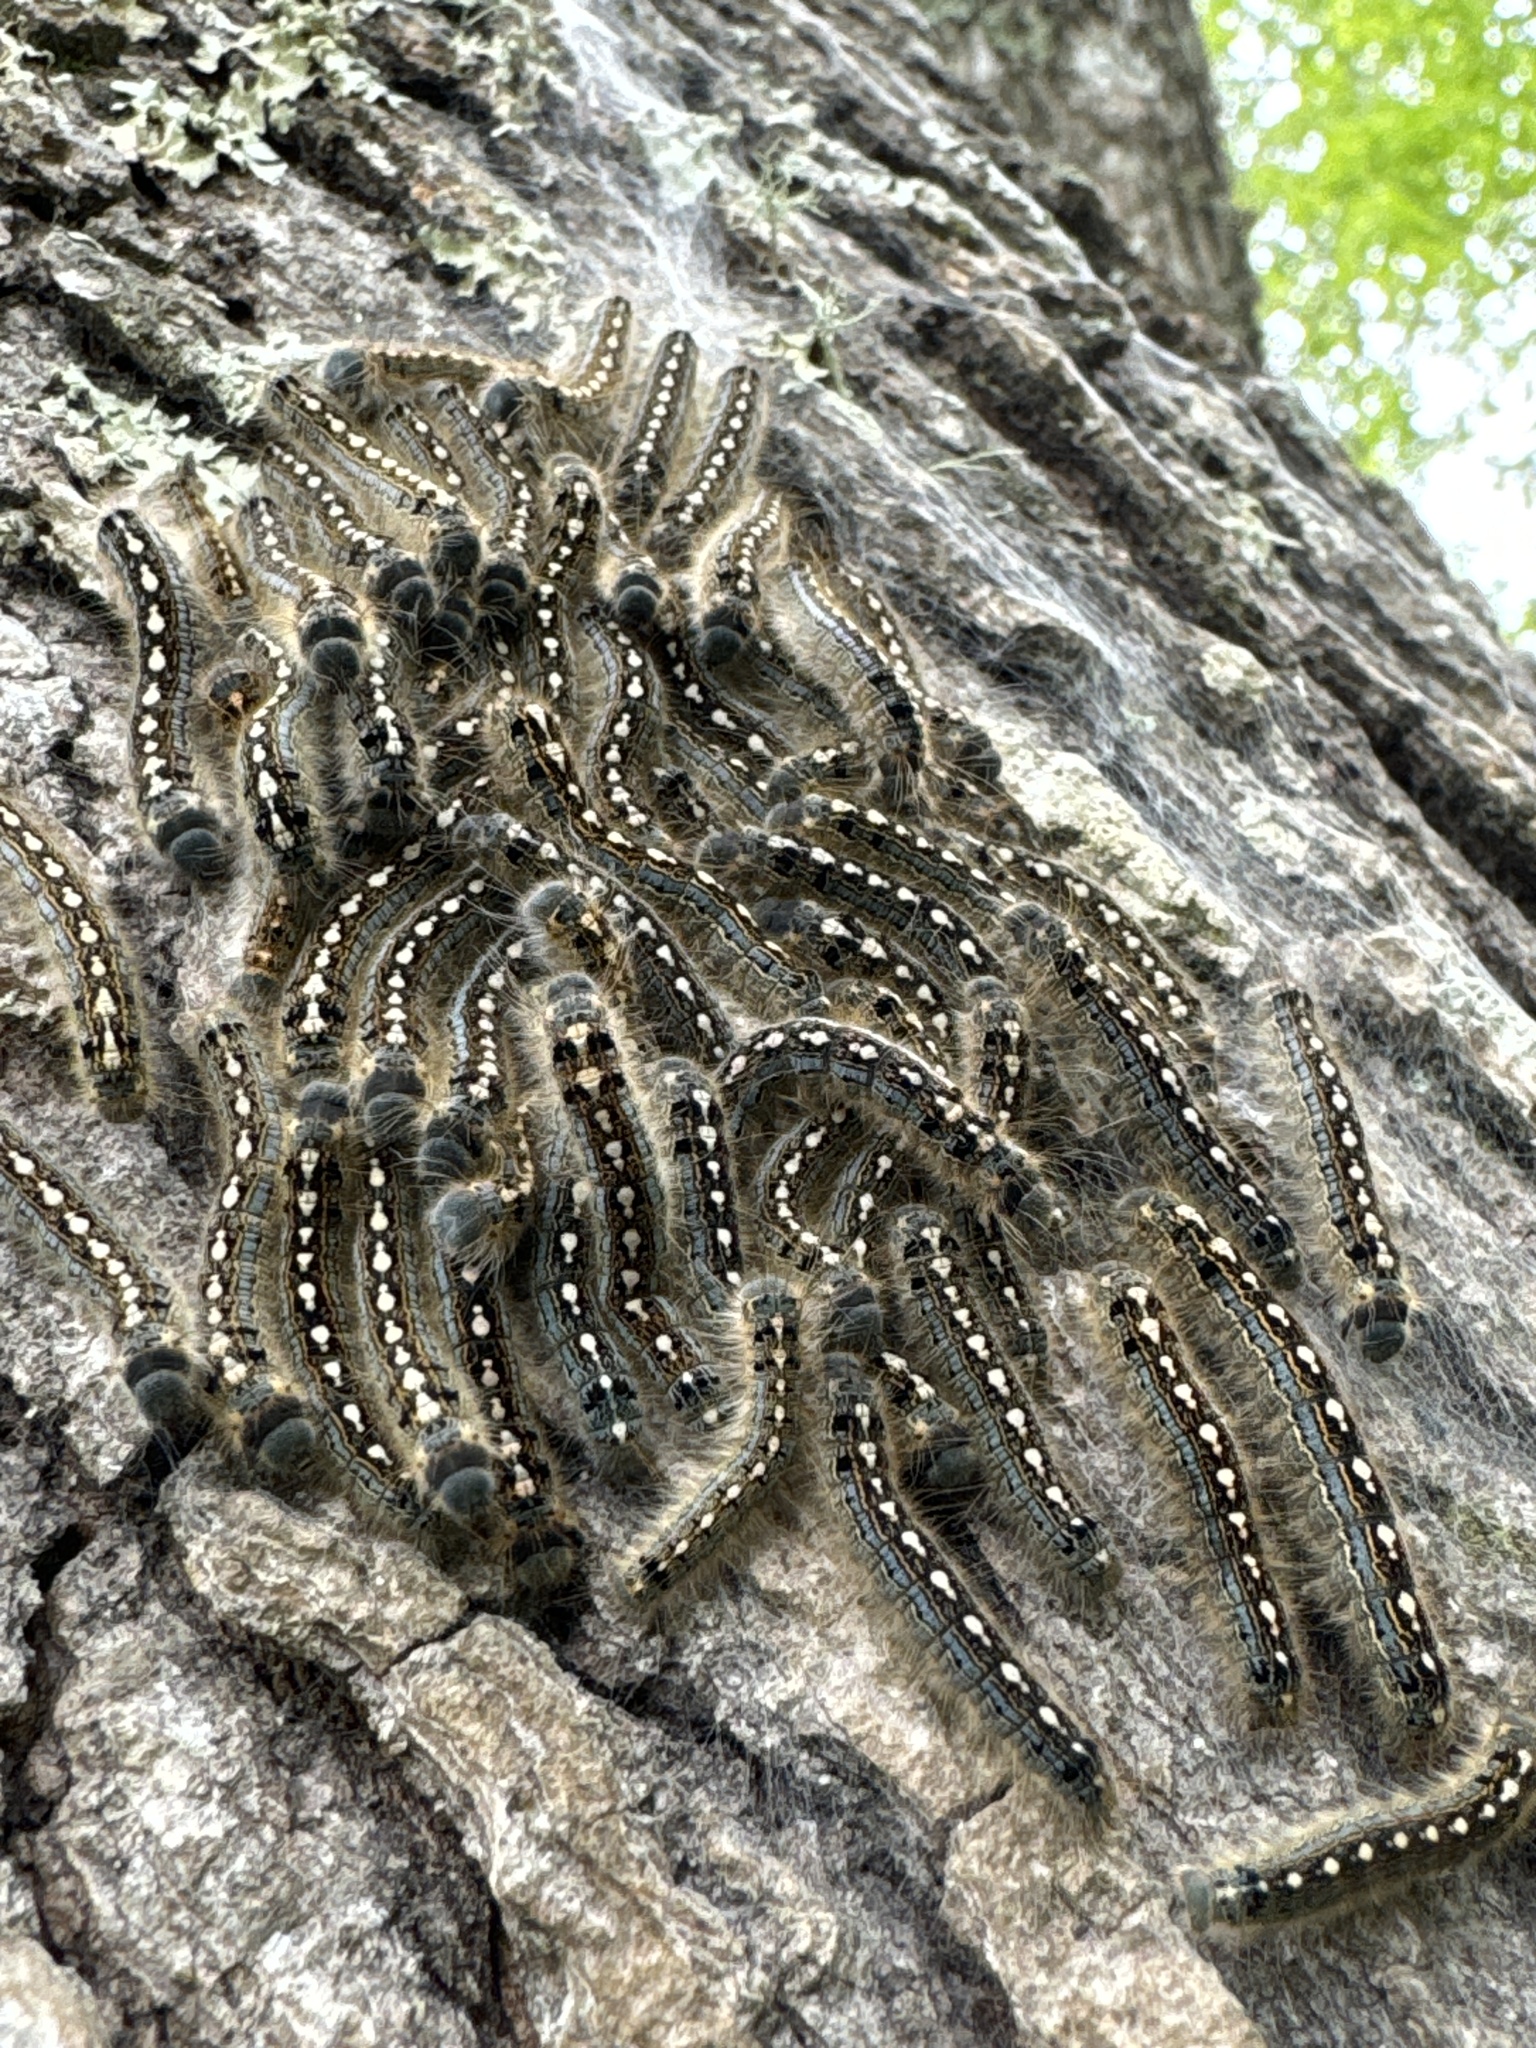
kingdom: Animalia
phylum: Arthropoda
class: Insecta
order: Lepidoptera
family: Lasiocampidae
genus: Malacosoma
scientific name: Malacosoma disstria
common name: Forest tent caterpillar
